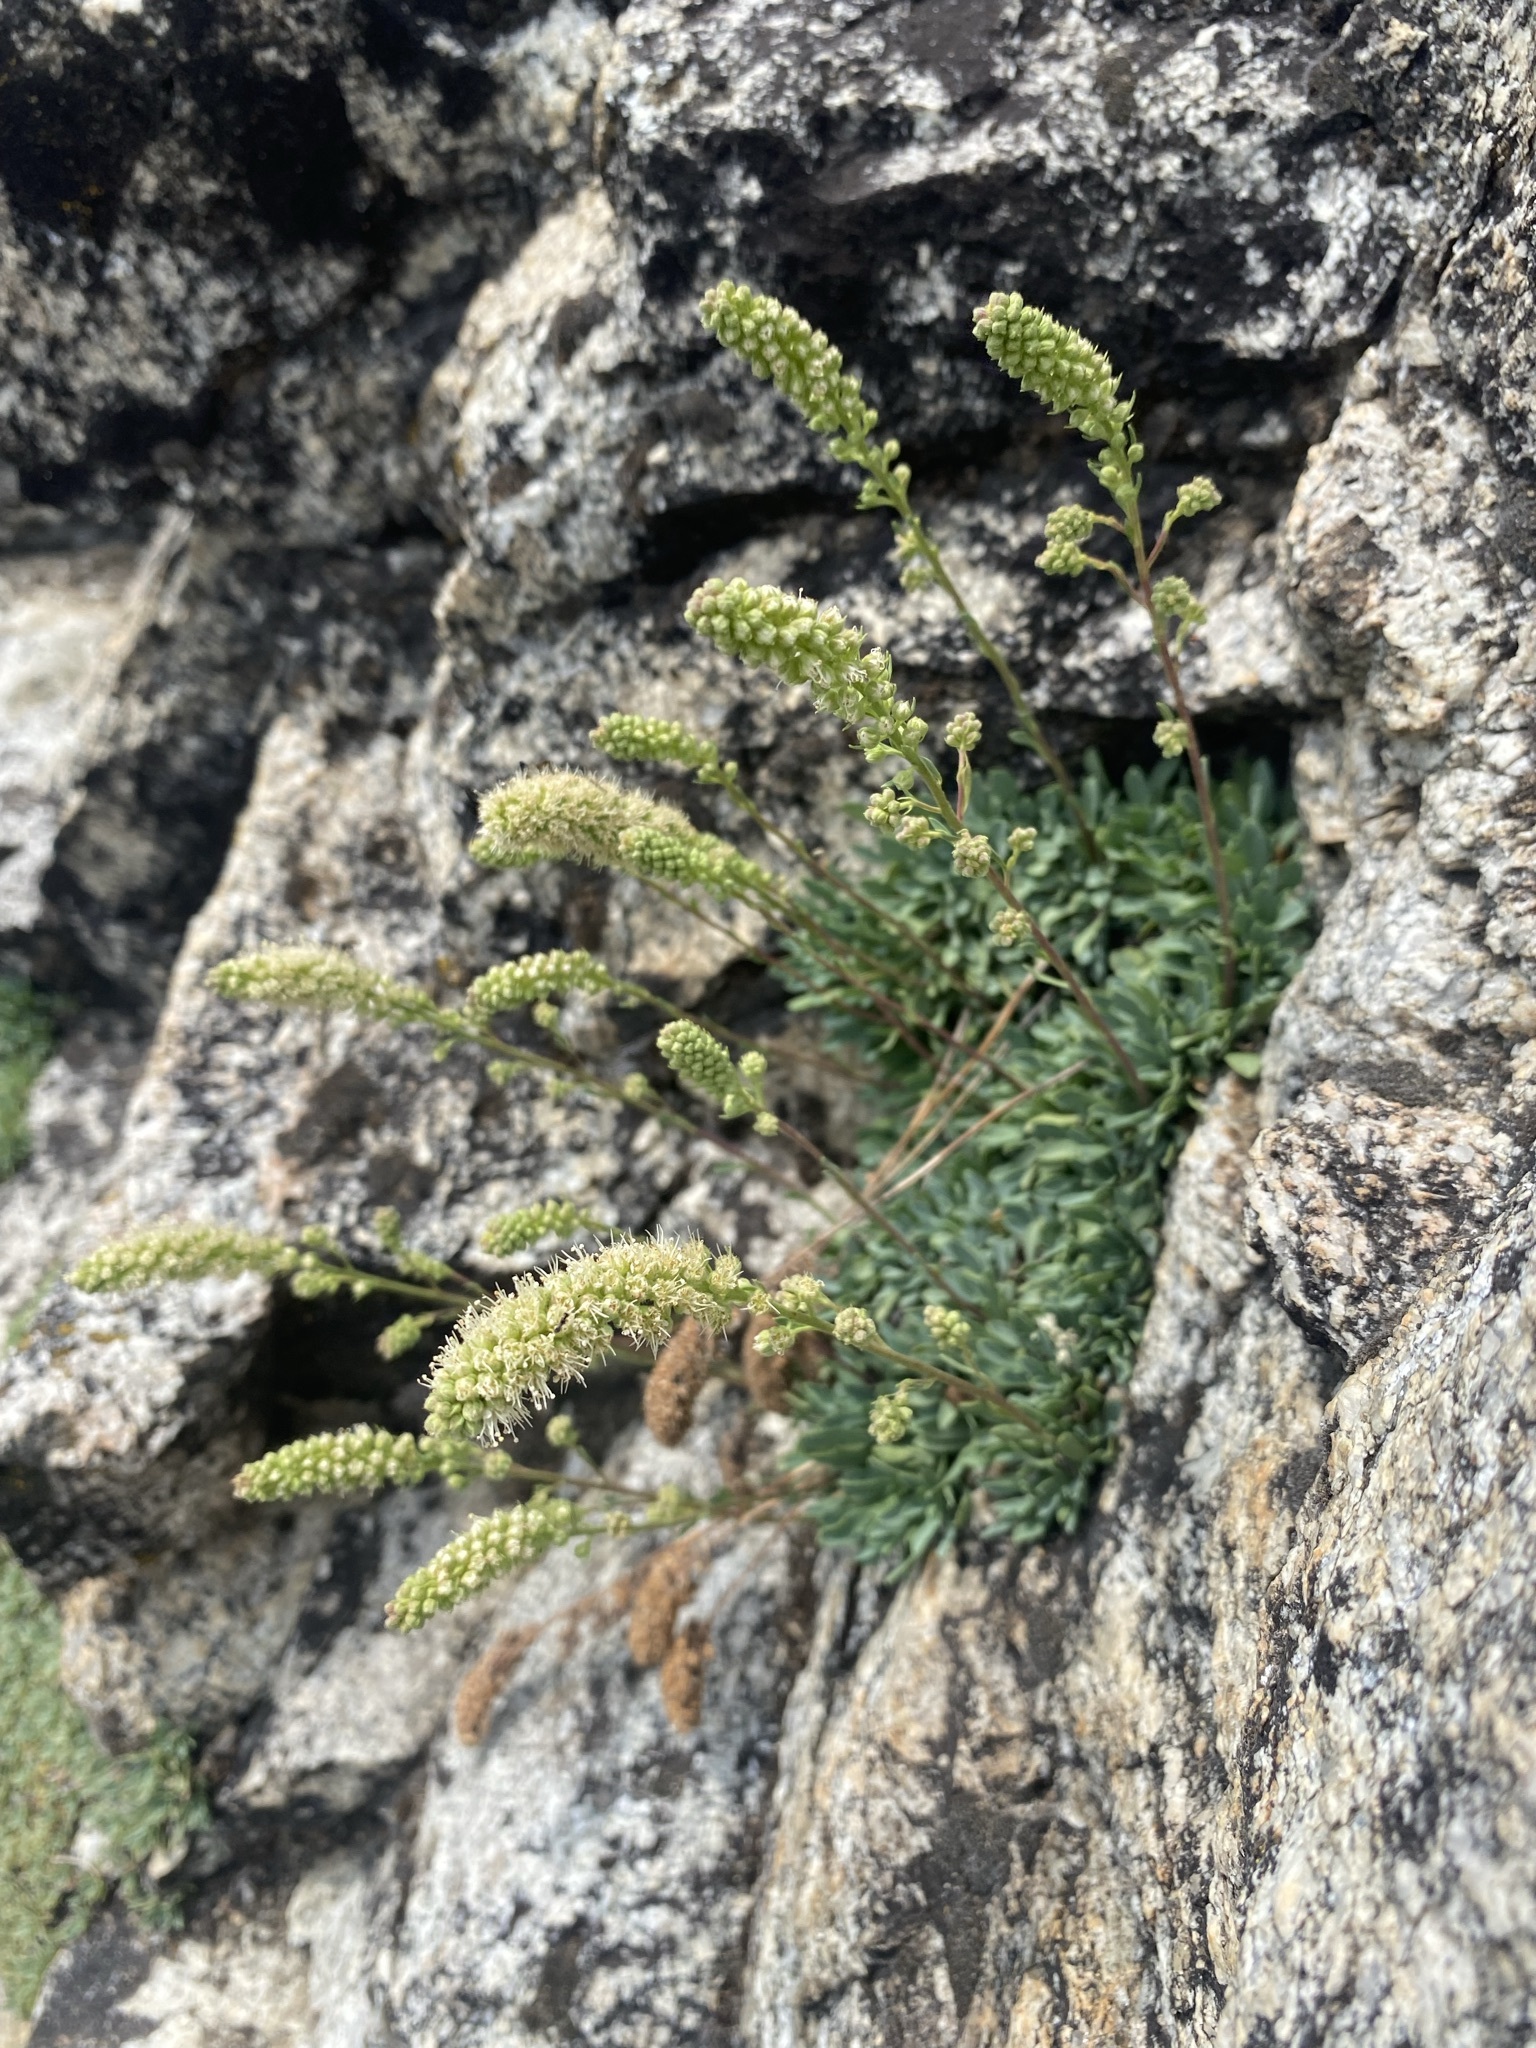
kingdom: Plantae
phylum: Tracheophyta
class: Magnoliopsida
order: Rosales
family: Rosaceae
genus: Petrophytum
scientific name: Petrophytum caespitosum
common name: Mat rockspirea
